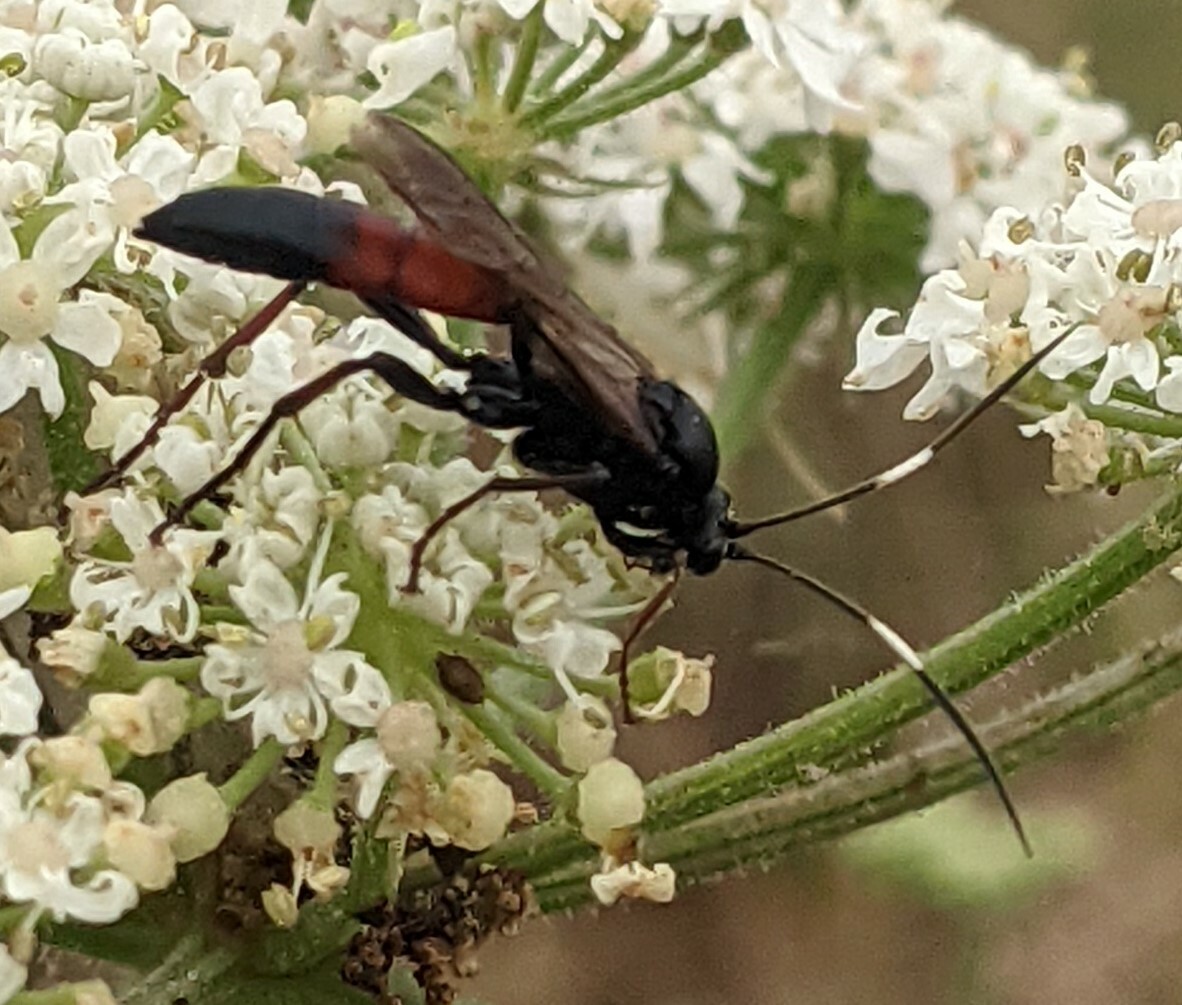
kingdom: Animalia
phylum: Arthropoda
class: Insecta
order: Hymenoptera
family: Ichneumonidae
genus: Stenichneumon
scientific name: Stenichneumon culpator
